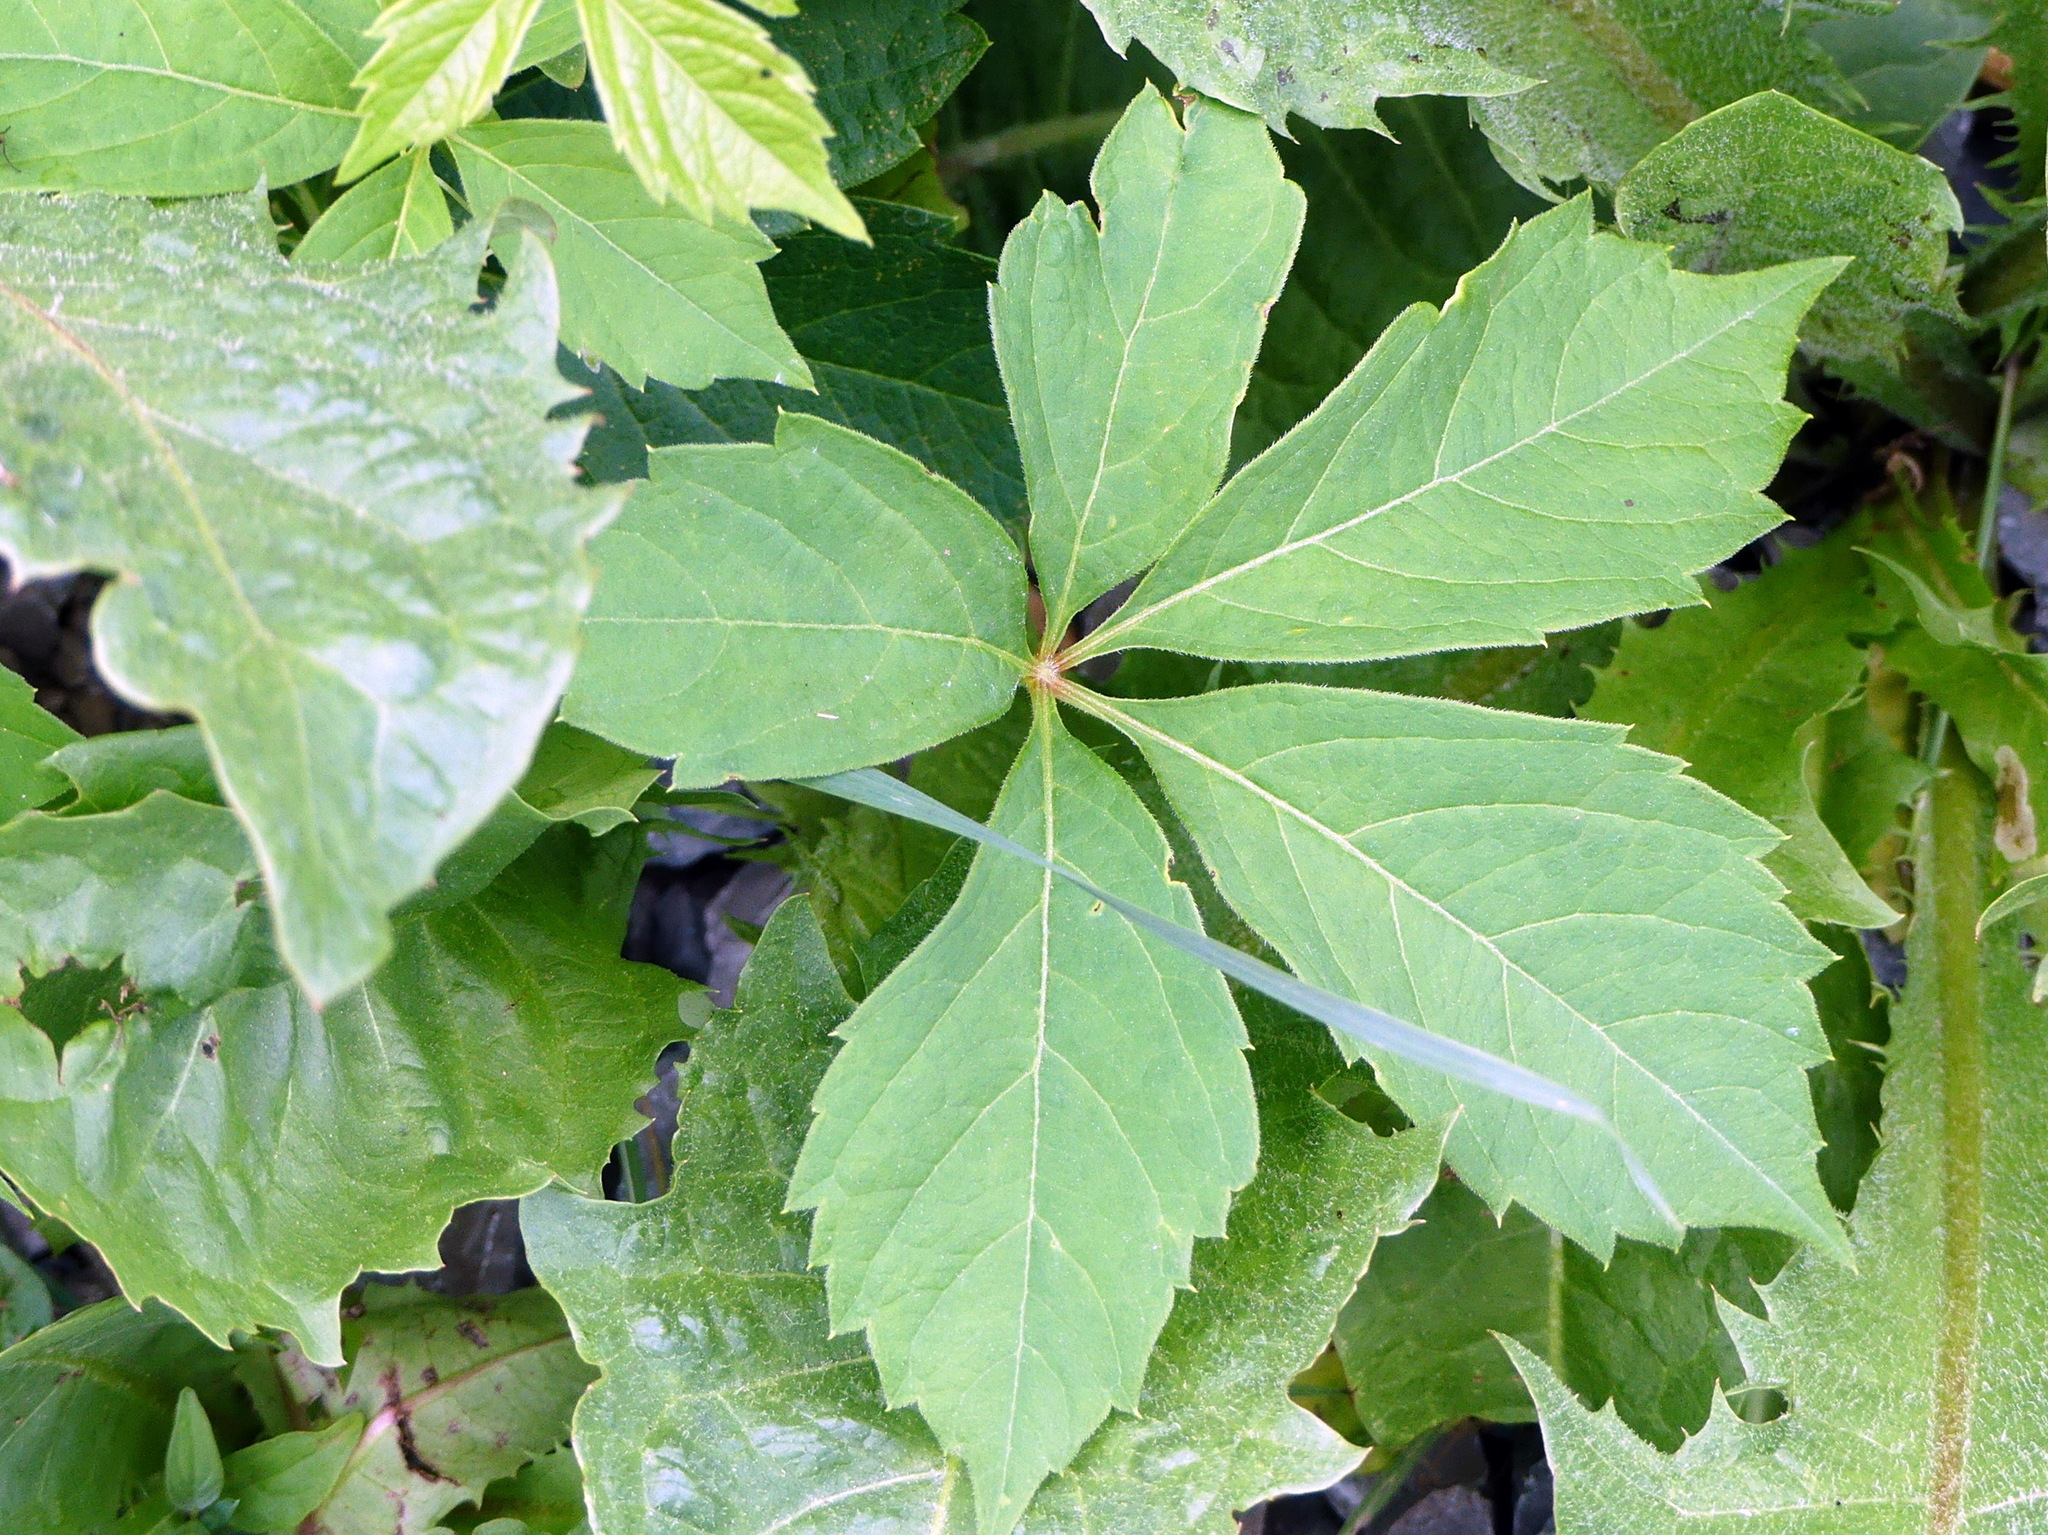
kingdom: Plantae
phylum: Tracheophyta
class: Magnoliopsida
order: Vitales
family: Vitaceae
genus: Parthenocissus
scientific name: Parthenocissus quinquefolia
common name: Virginia-creeper
